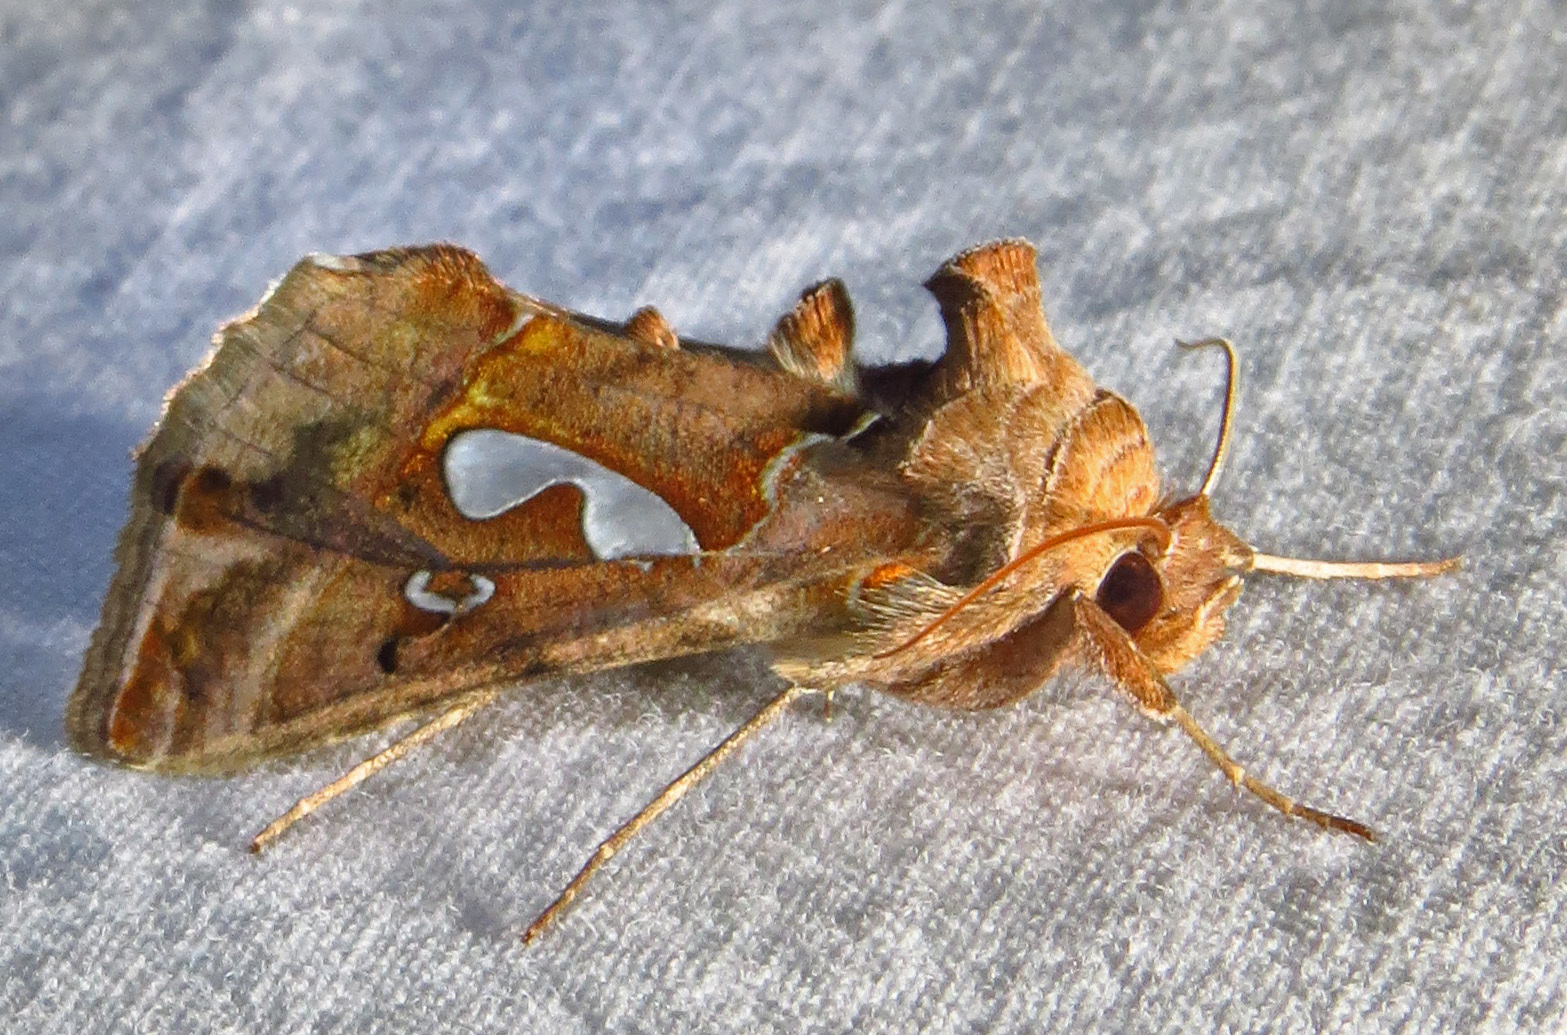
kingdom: Animalia
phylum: Arthropoda
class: Insecta
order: Lepidoptera
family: Noctuidae
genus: Megalographa
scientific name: Megalographa biloba
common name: Cutworm
